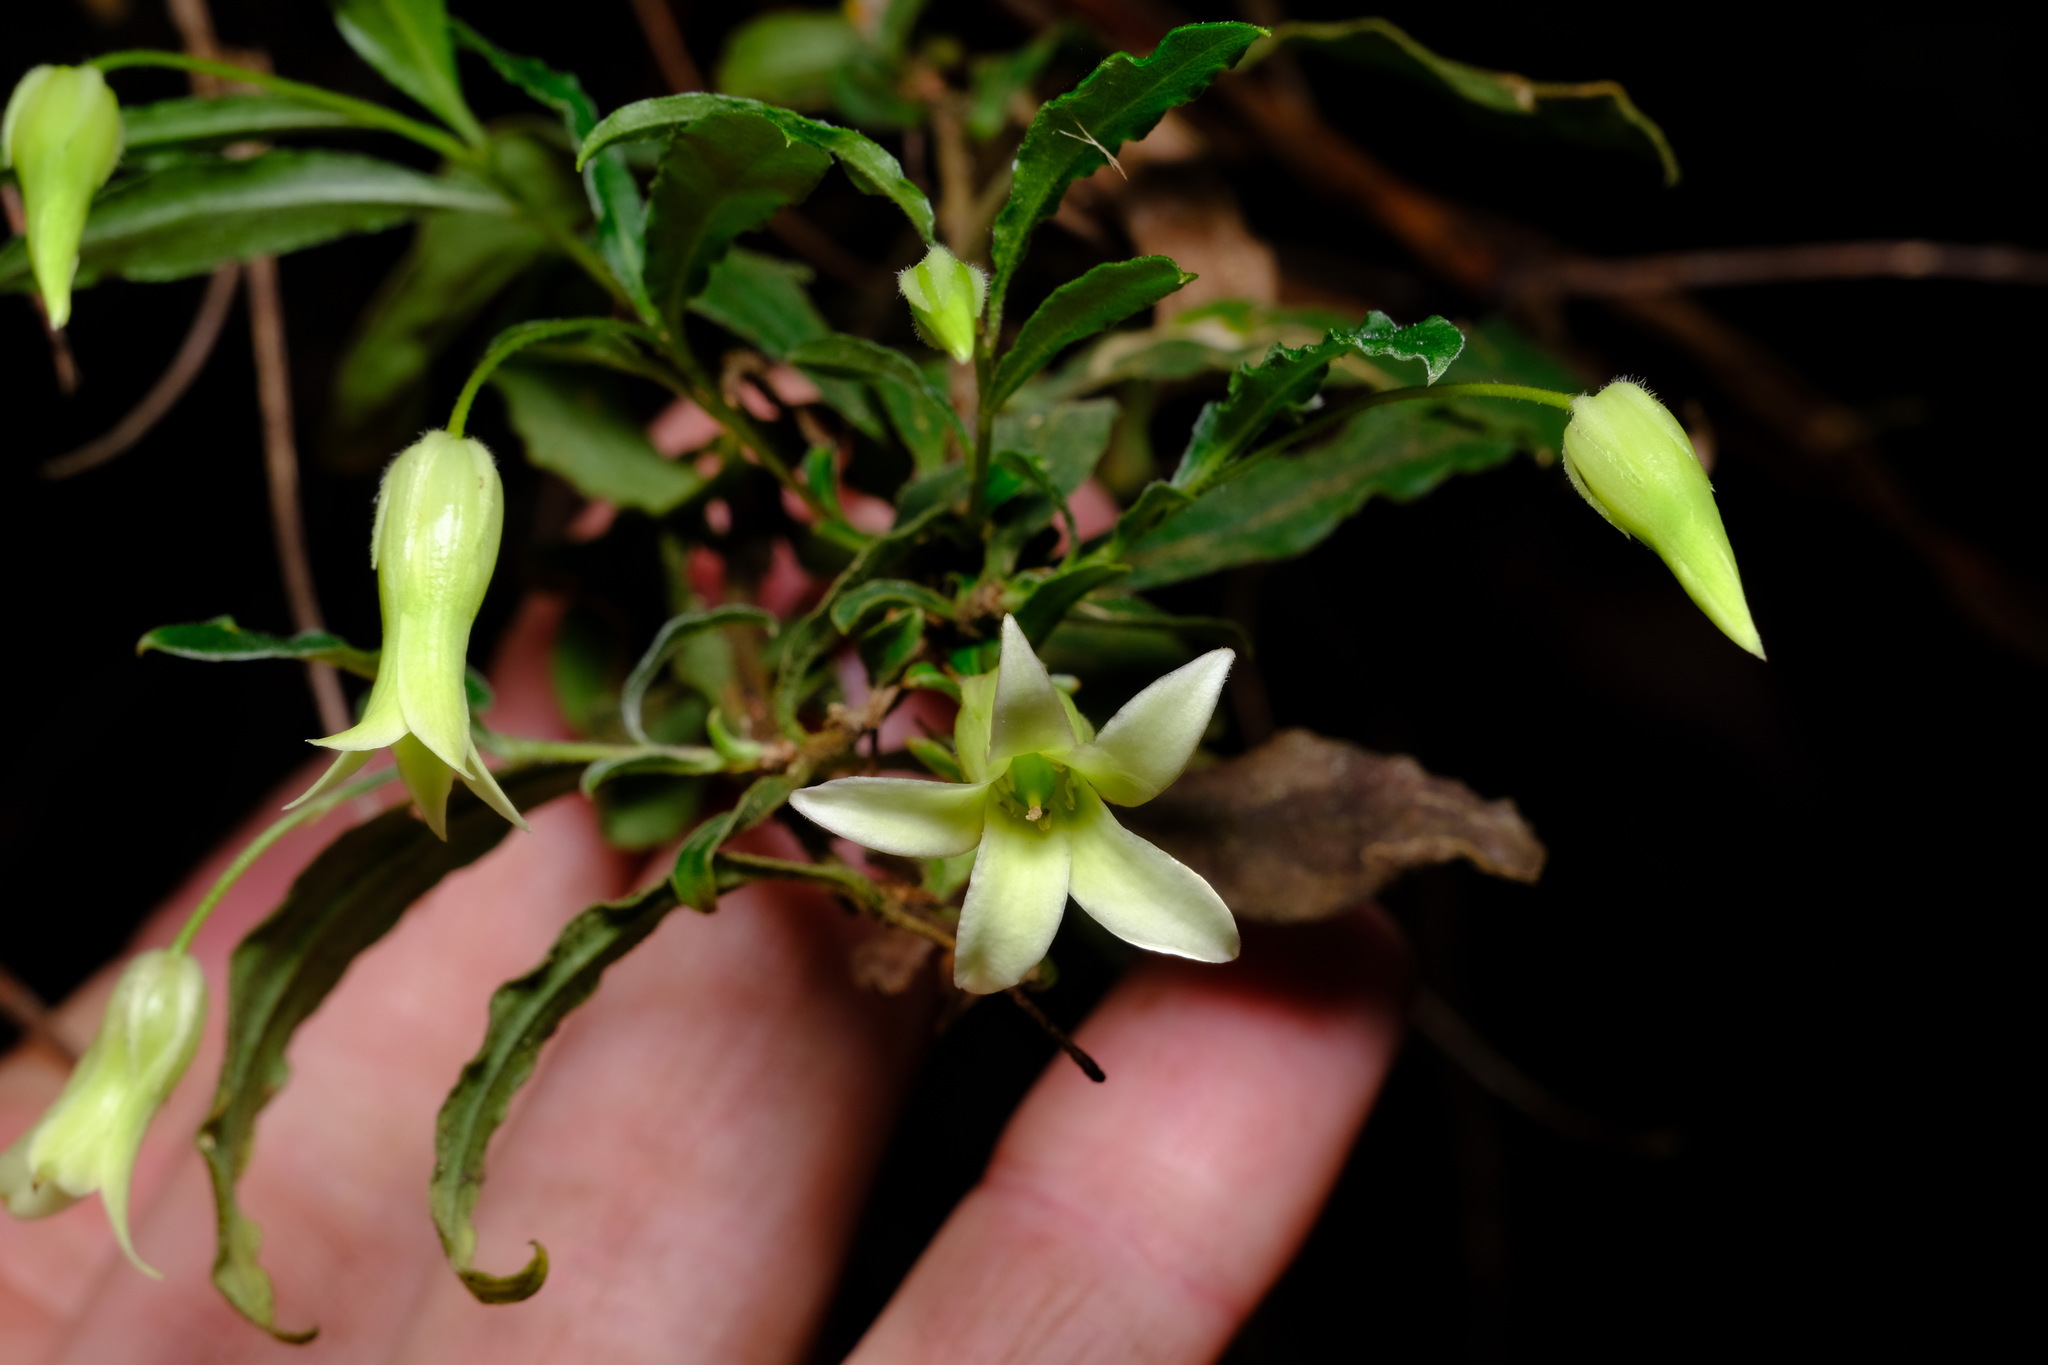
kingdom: Plantae
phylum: Tracheophyta
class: Magnoliopsida
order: Apiales
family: Pittosporaceae
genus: Billardiera
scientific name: Billardiera mutabilis
